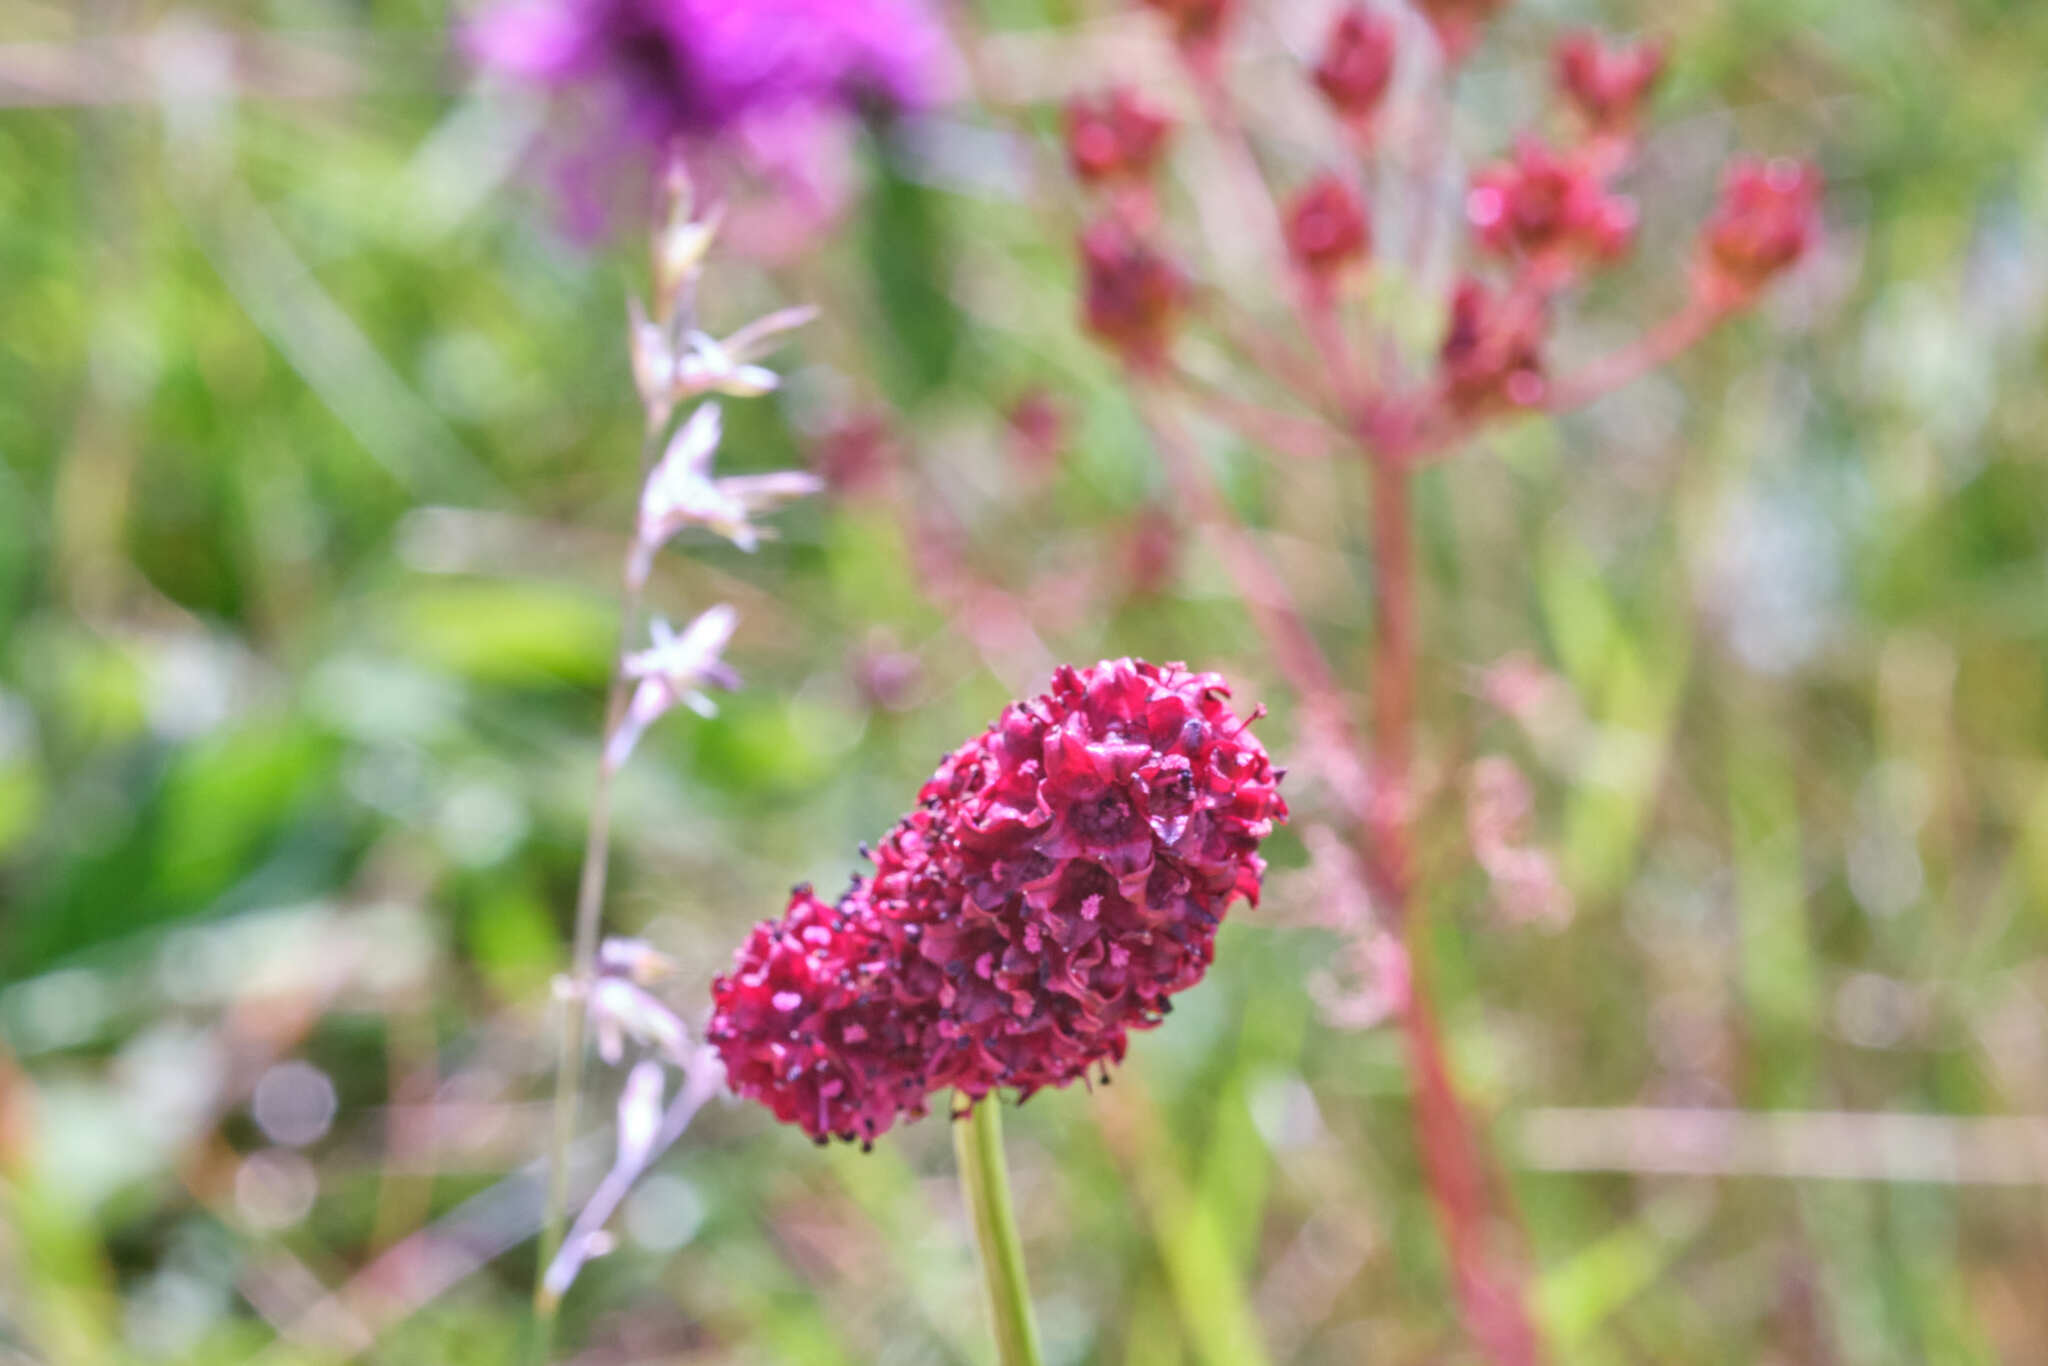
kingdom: Plantae
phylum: Tracheophyta
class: Magnoliopsida
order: Rosales
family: Rosaceae
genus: Sanguisorba
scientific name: Sanguisorba officinalis
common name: Great burnet
